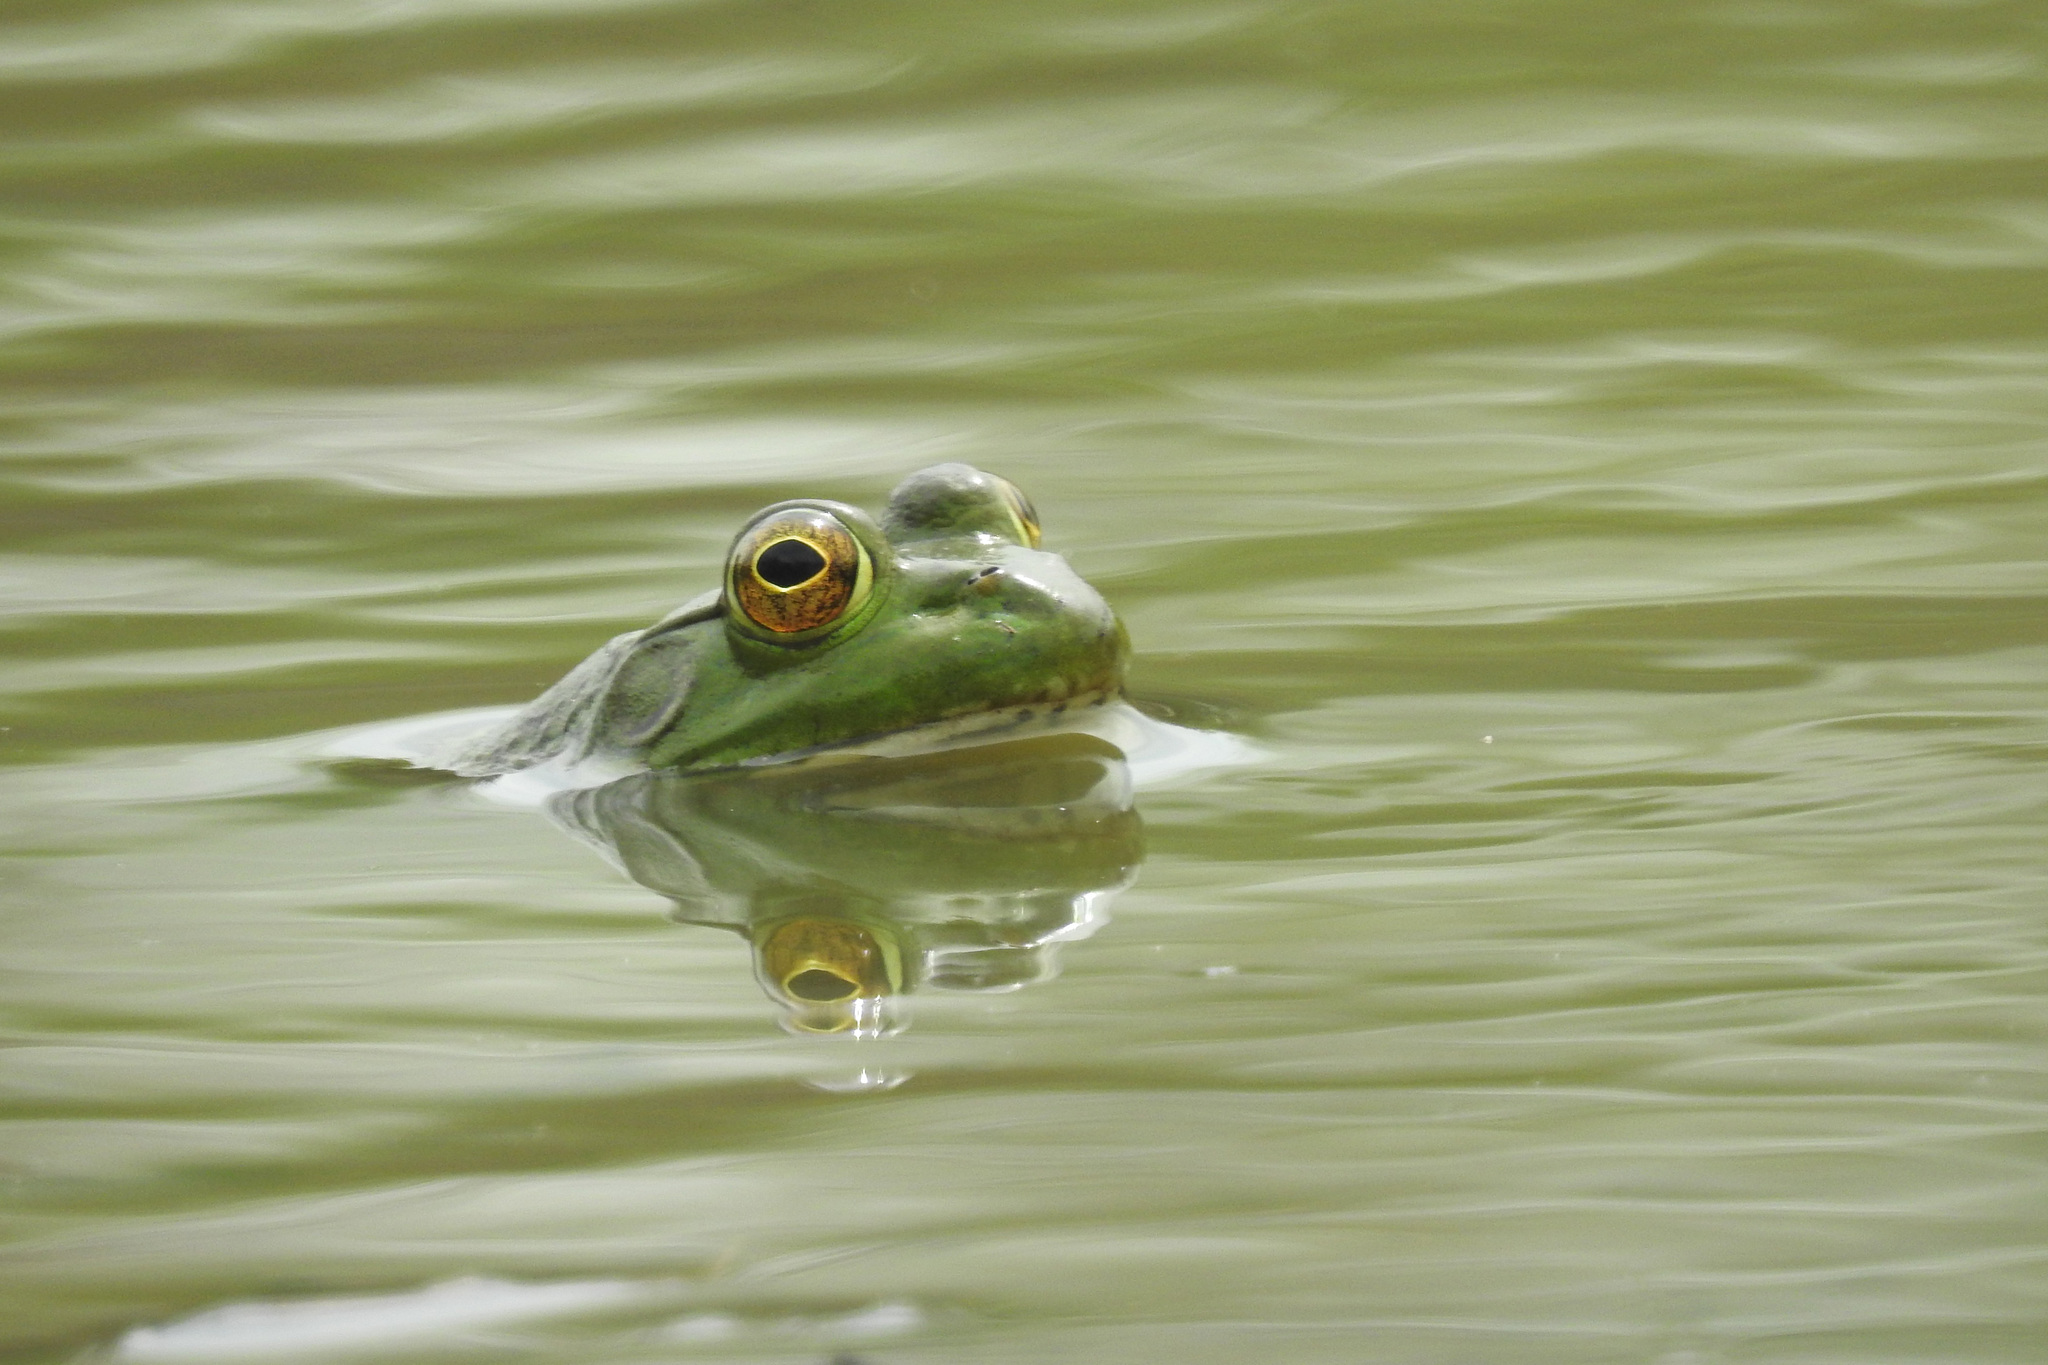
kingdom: Animalia
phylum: Chordata
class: Amphibia
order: Anura
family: Ranidae
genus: Lithobates
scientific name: Lithobates catesbeianus
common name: American bullfrog
